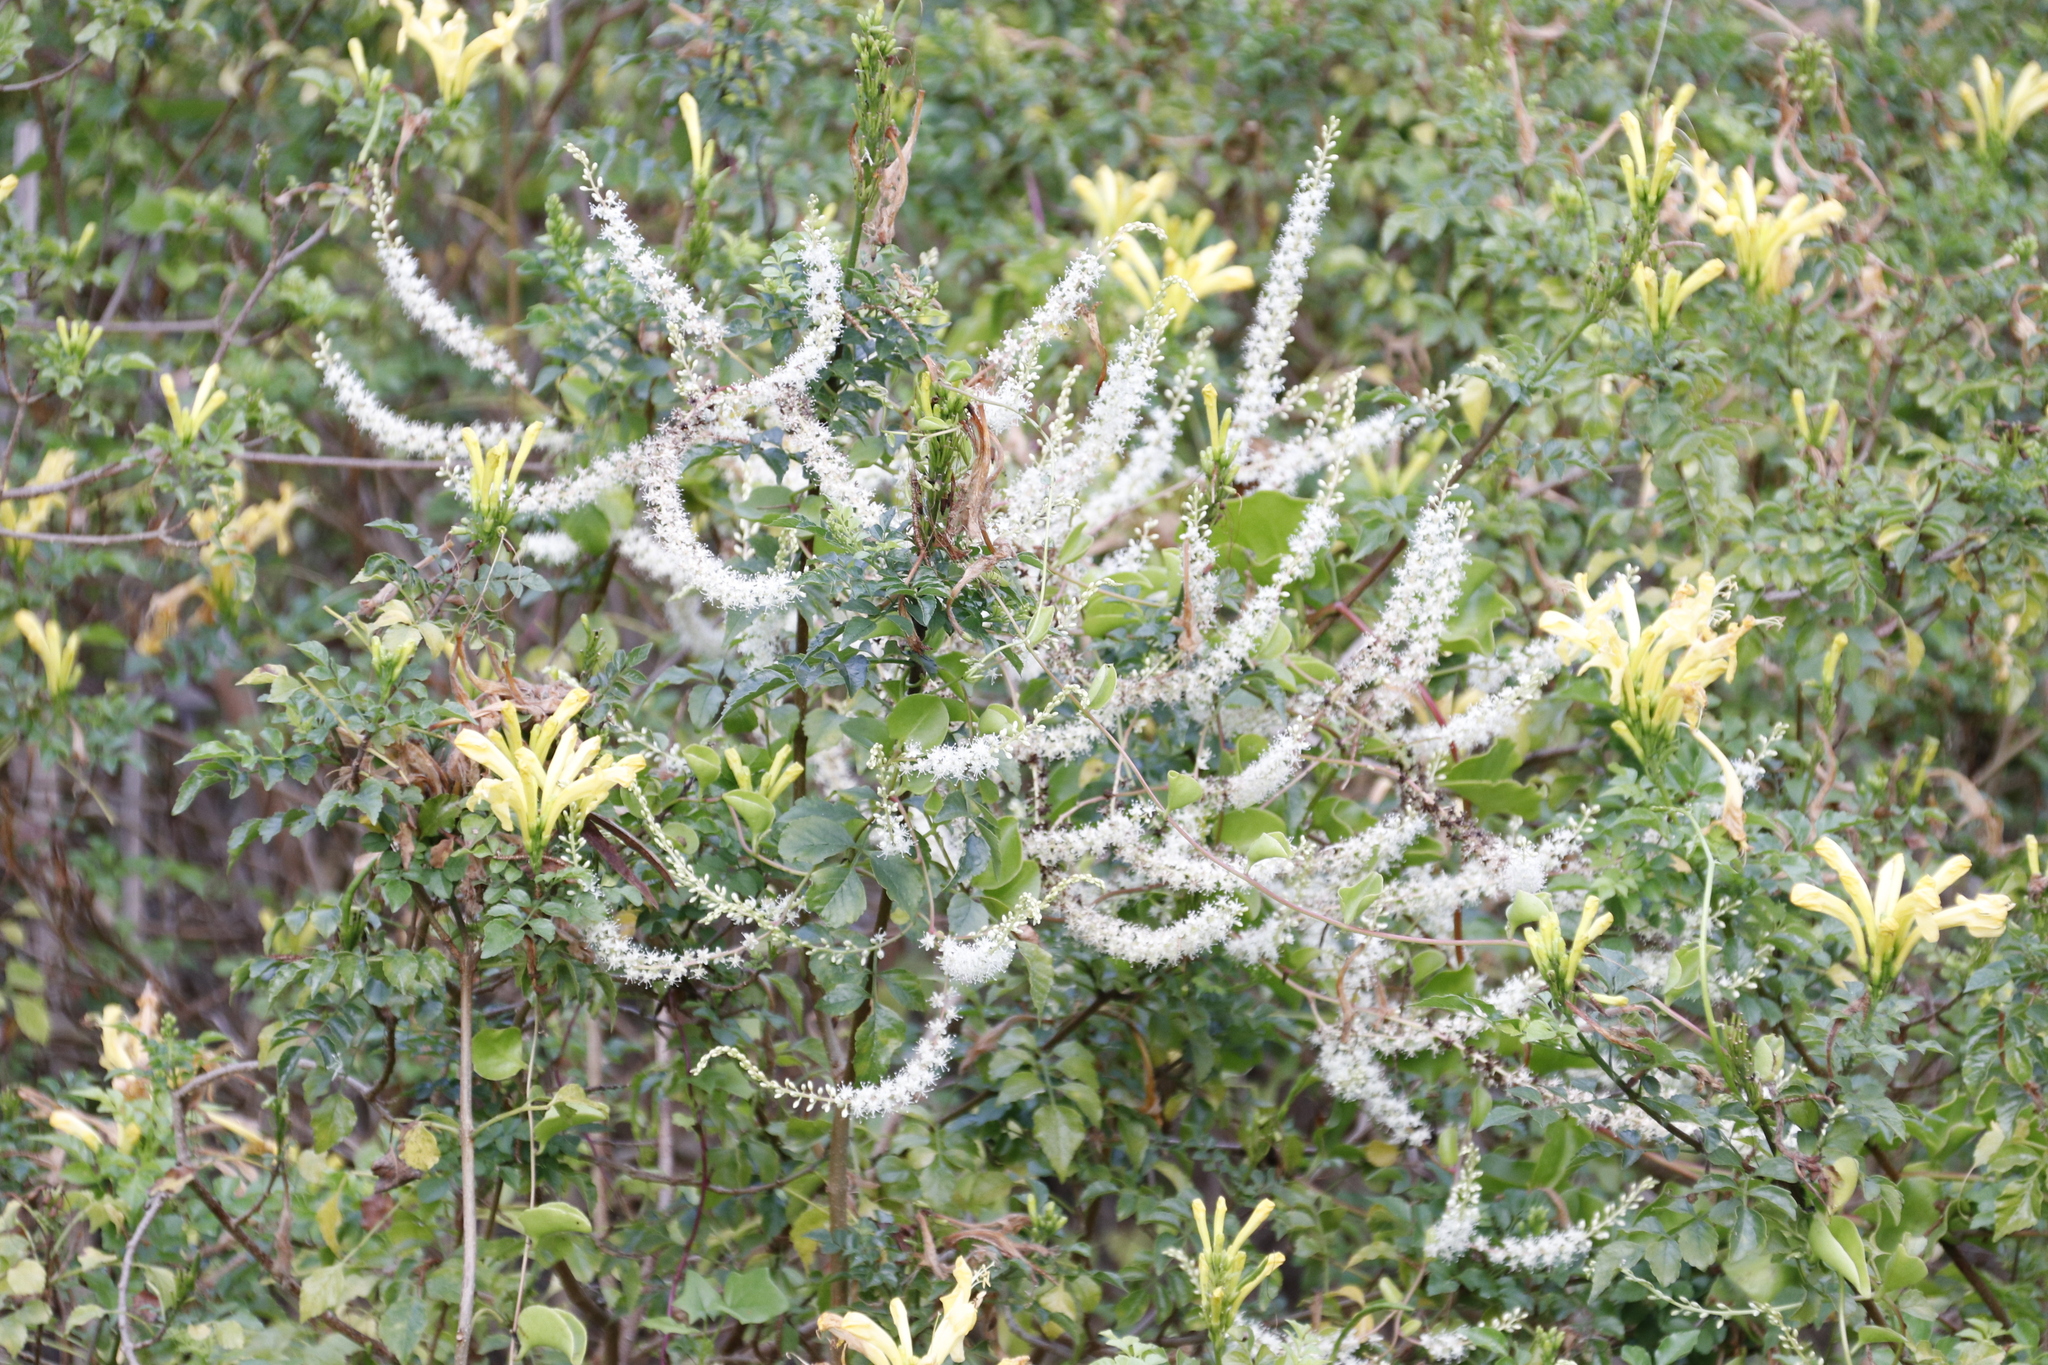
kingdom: Plantae
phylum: Tracheophyta
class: Magnoliopsida
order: Caryophyllales
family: Basellaceae
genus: Anredera
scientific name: Anredera cordifolia
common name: Heartleaf madeiravine
